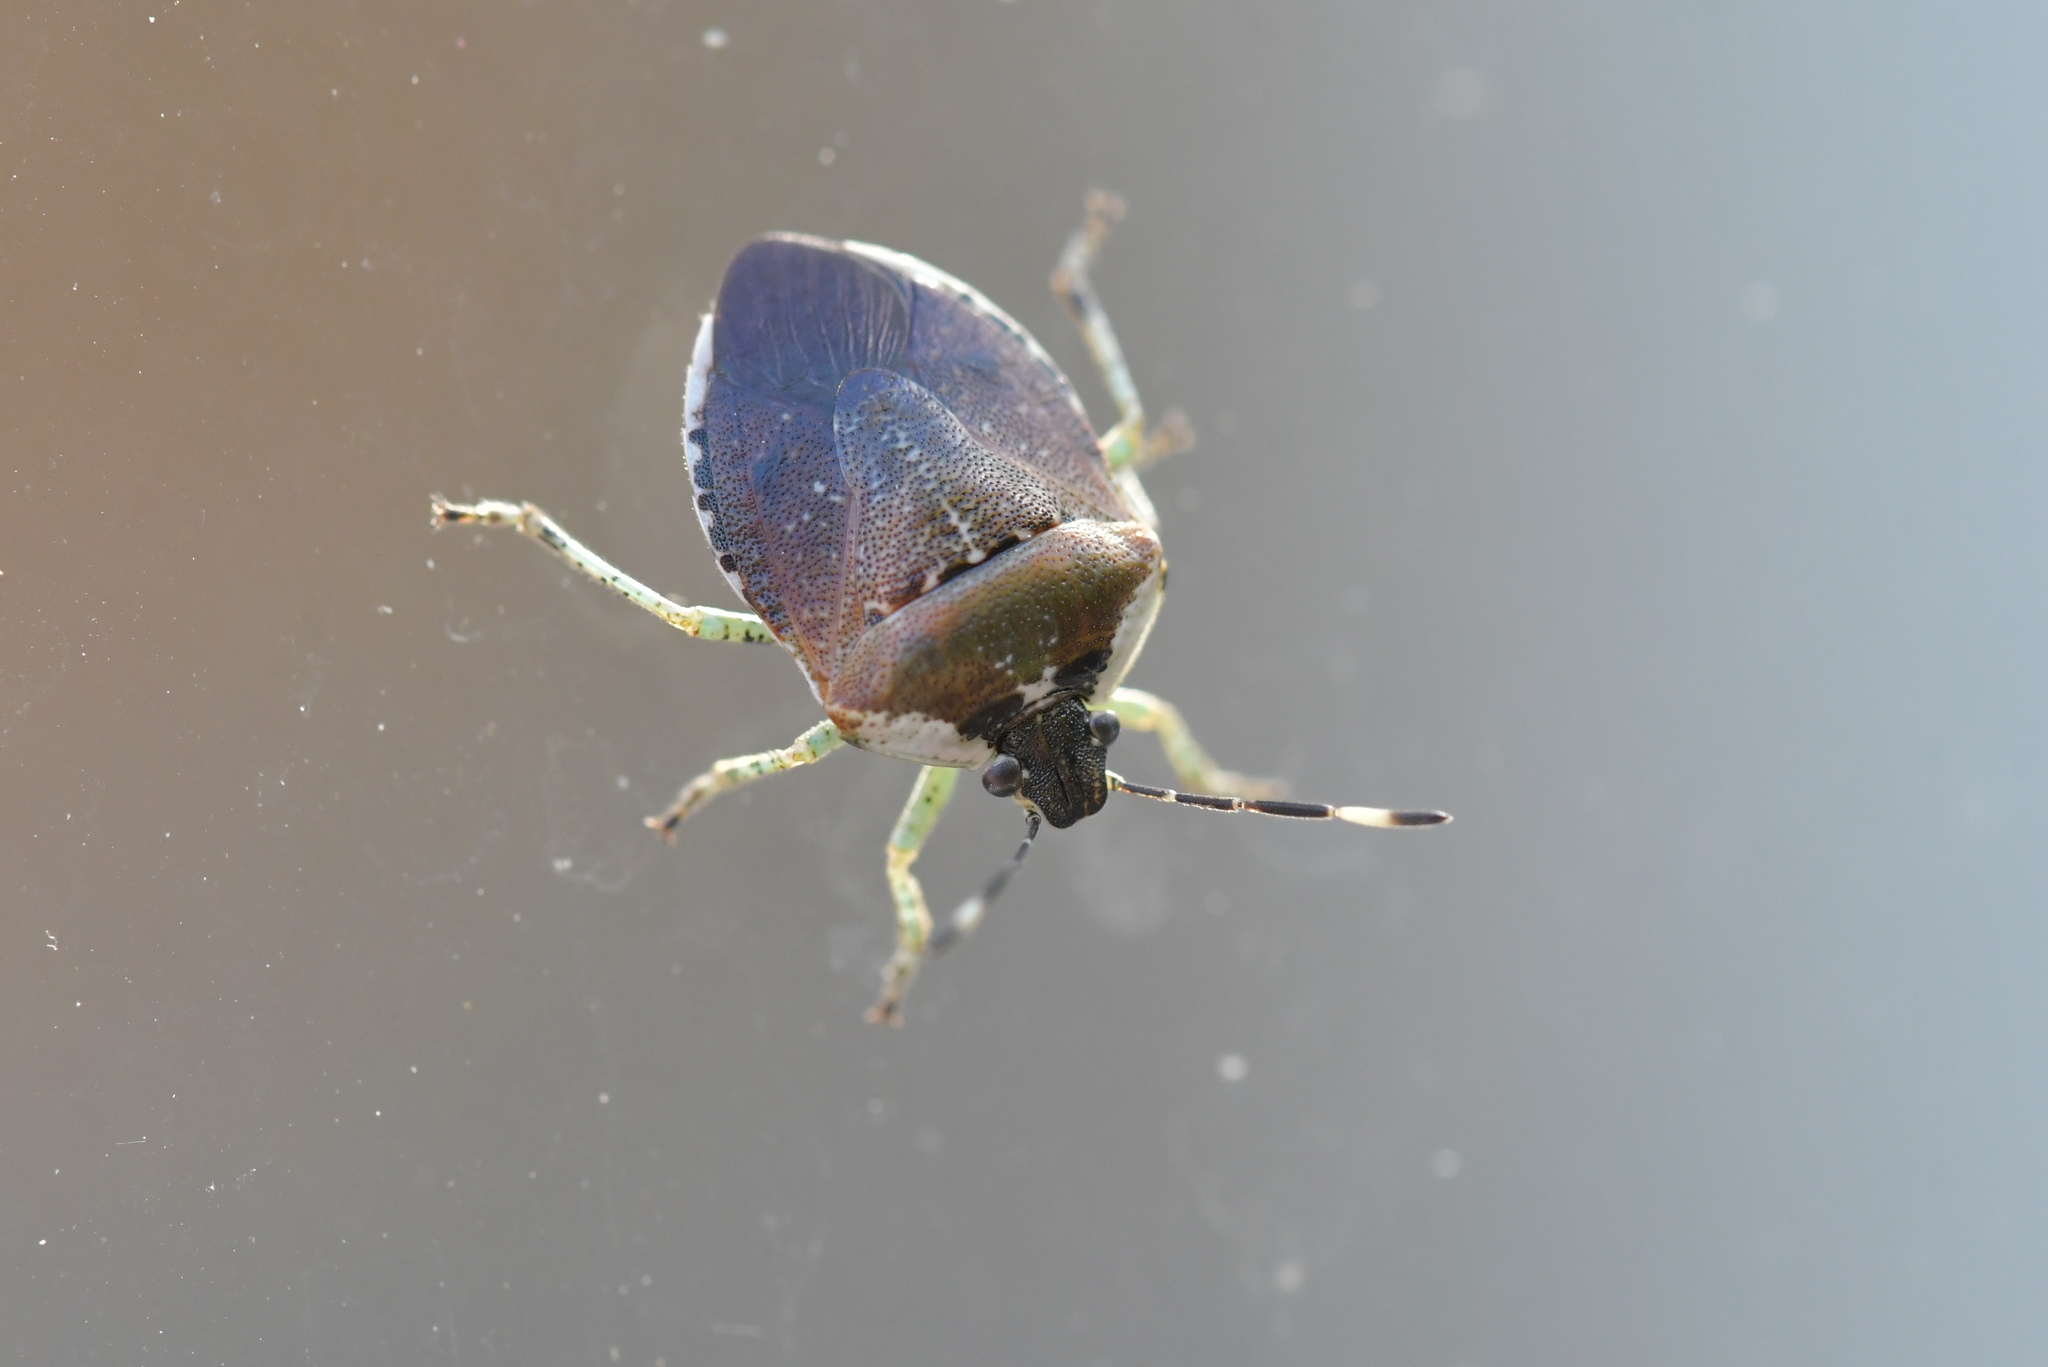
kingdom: Animalia
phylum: Arthropoda
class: Insecta
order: Hemiptera
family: Pentatomidae
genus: Monteithiella
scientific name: Monteithiella
